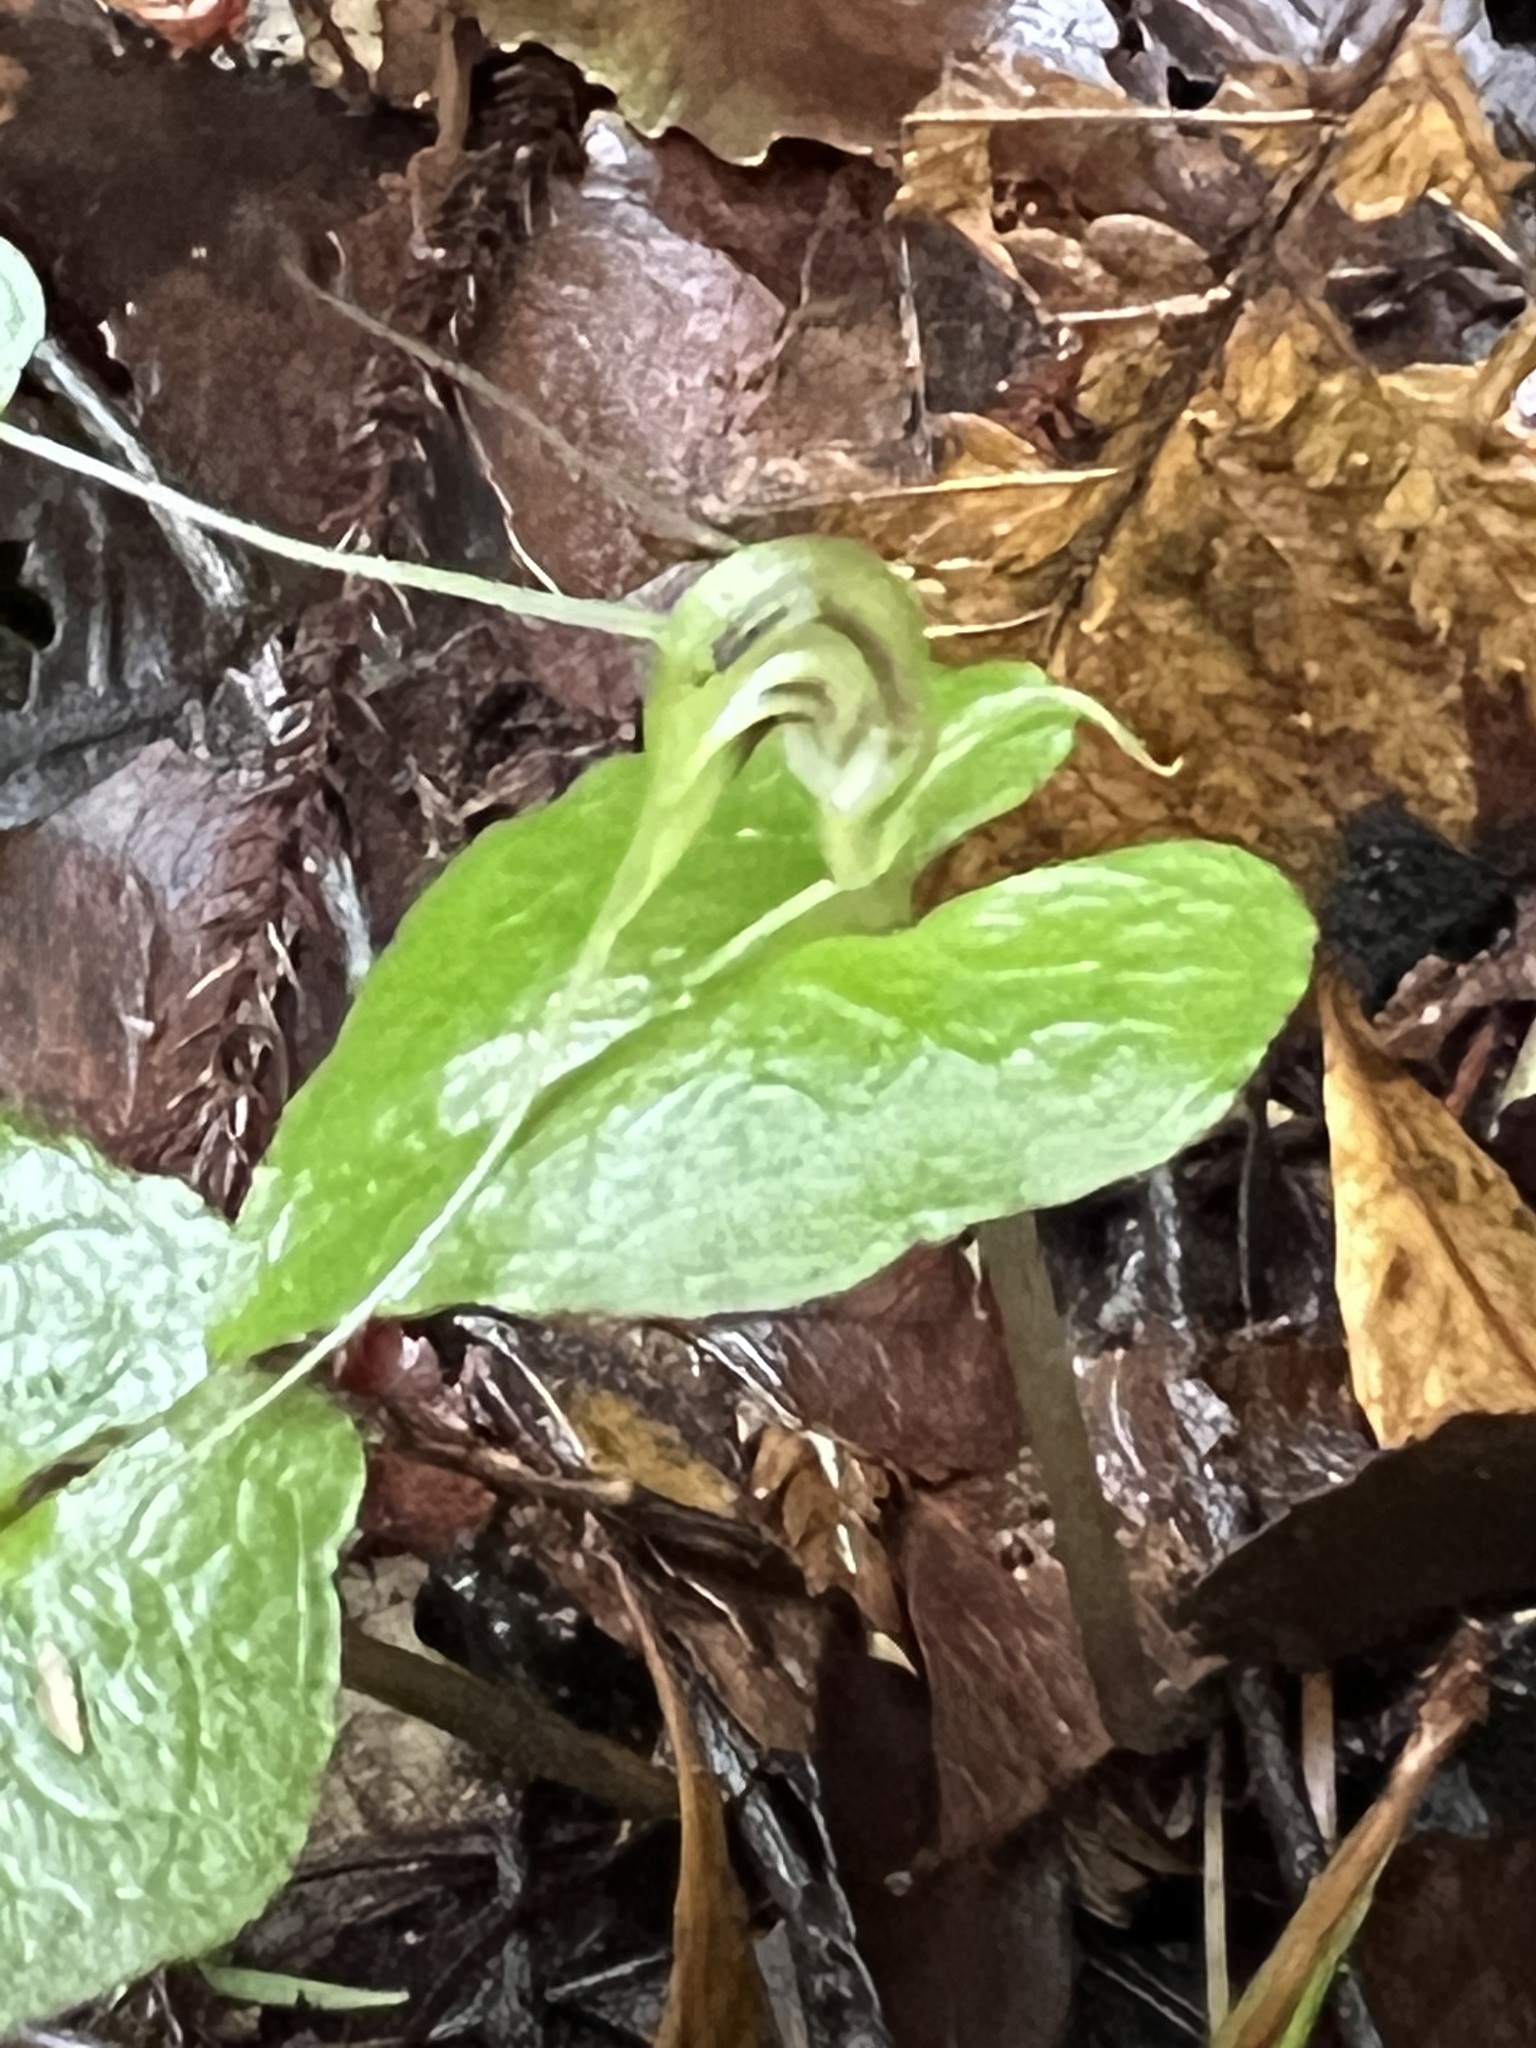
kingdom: Plantae
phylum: Tracheophyta
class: Liliopsida
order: Asparagales
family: Orchidaceae
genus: Corybas
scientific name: Corybas acuminatus
